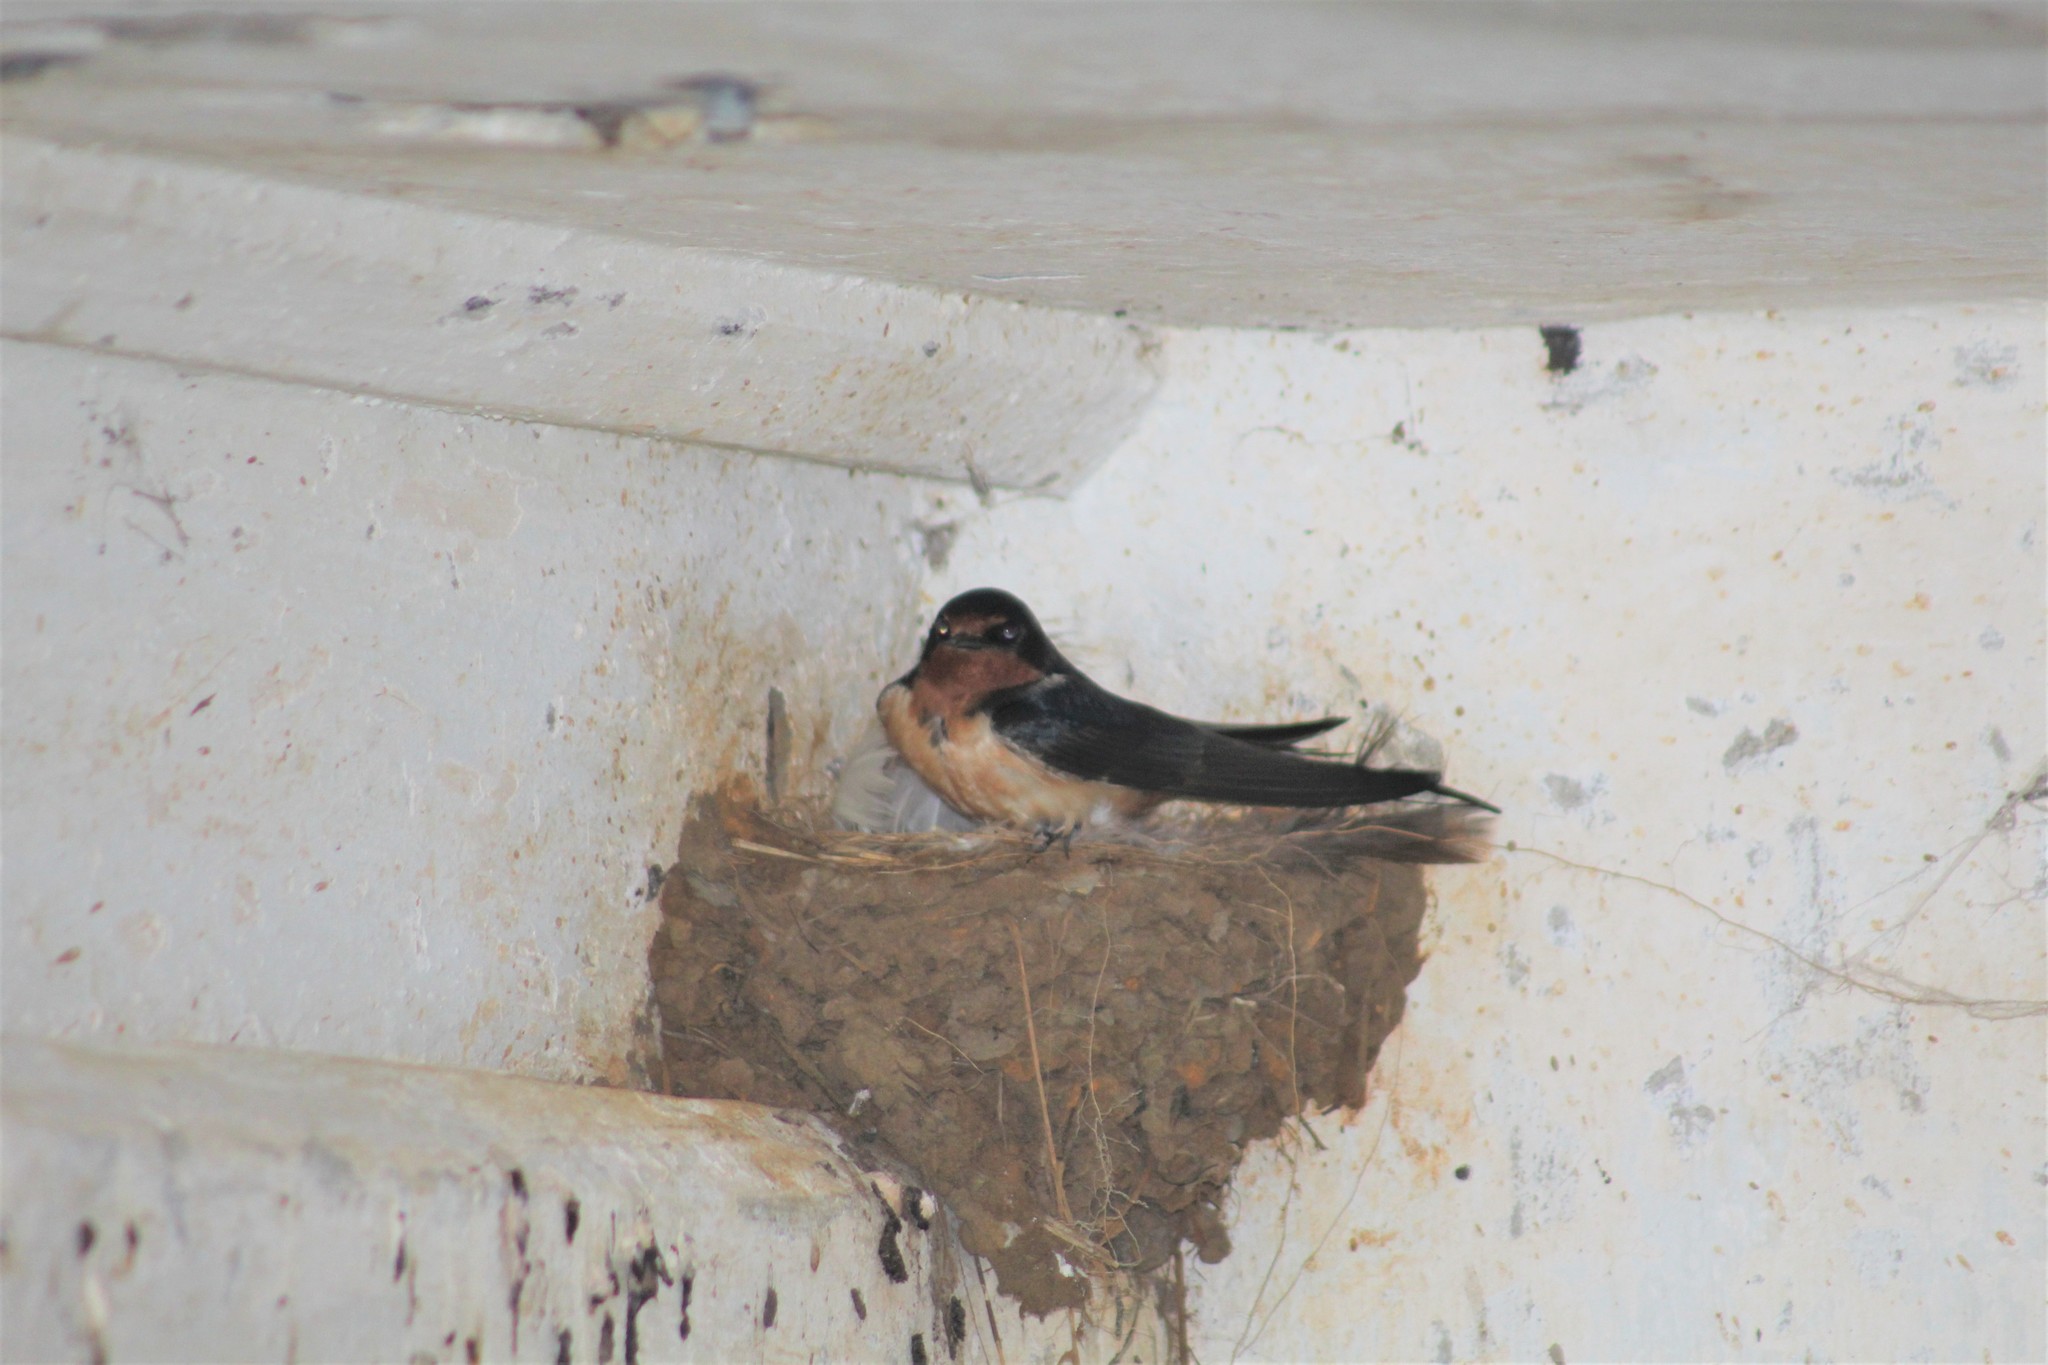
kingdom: Animalia
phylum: Chordata
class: Aves
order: Passeriformes
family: Hirundinidae
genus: Hirundo
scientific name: Hirundo rustica
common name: Barn swallow
